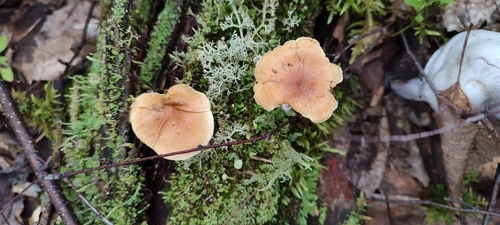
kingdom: Fungi
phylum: Basidiomycota
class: Agaricomycetes
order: Agaricales
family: Strophariaceae
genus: Pholiota
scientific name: Pholiota
